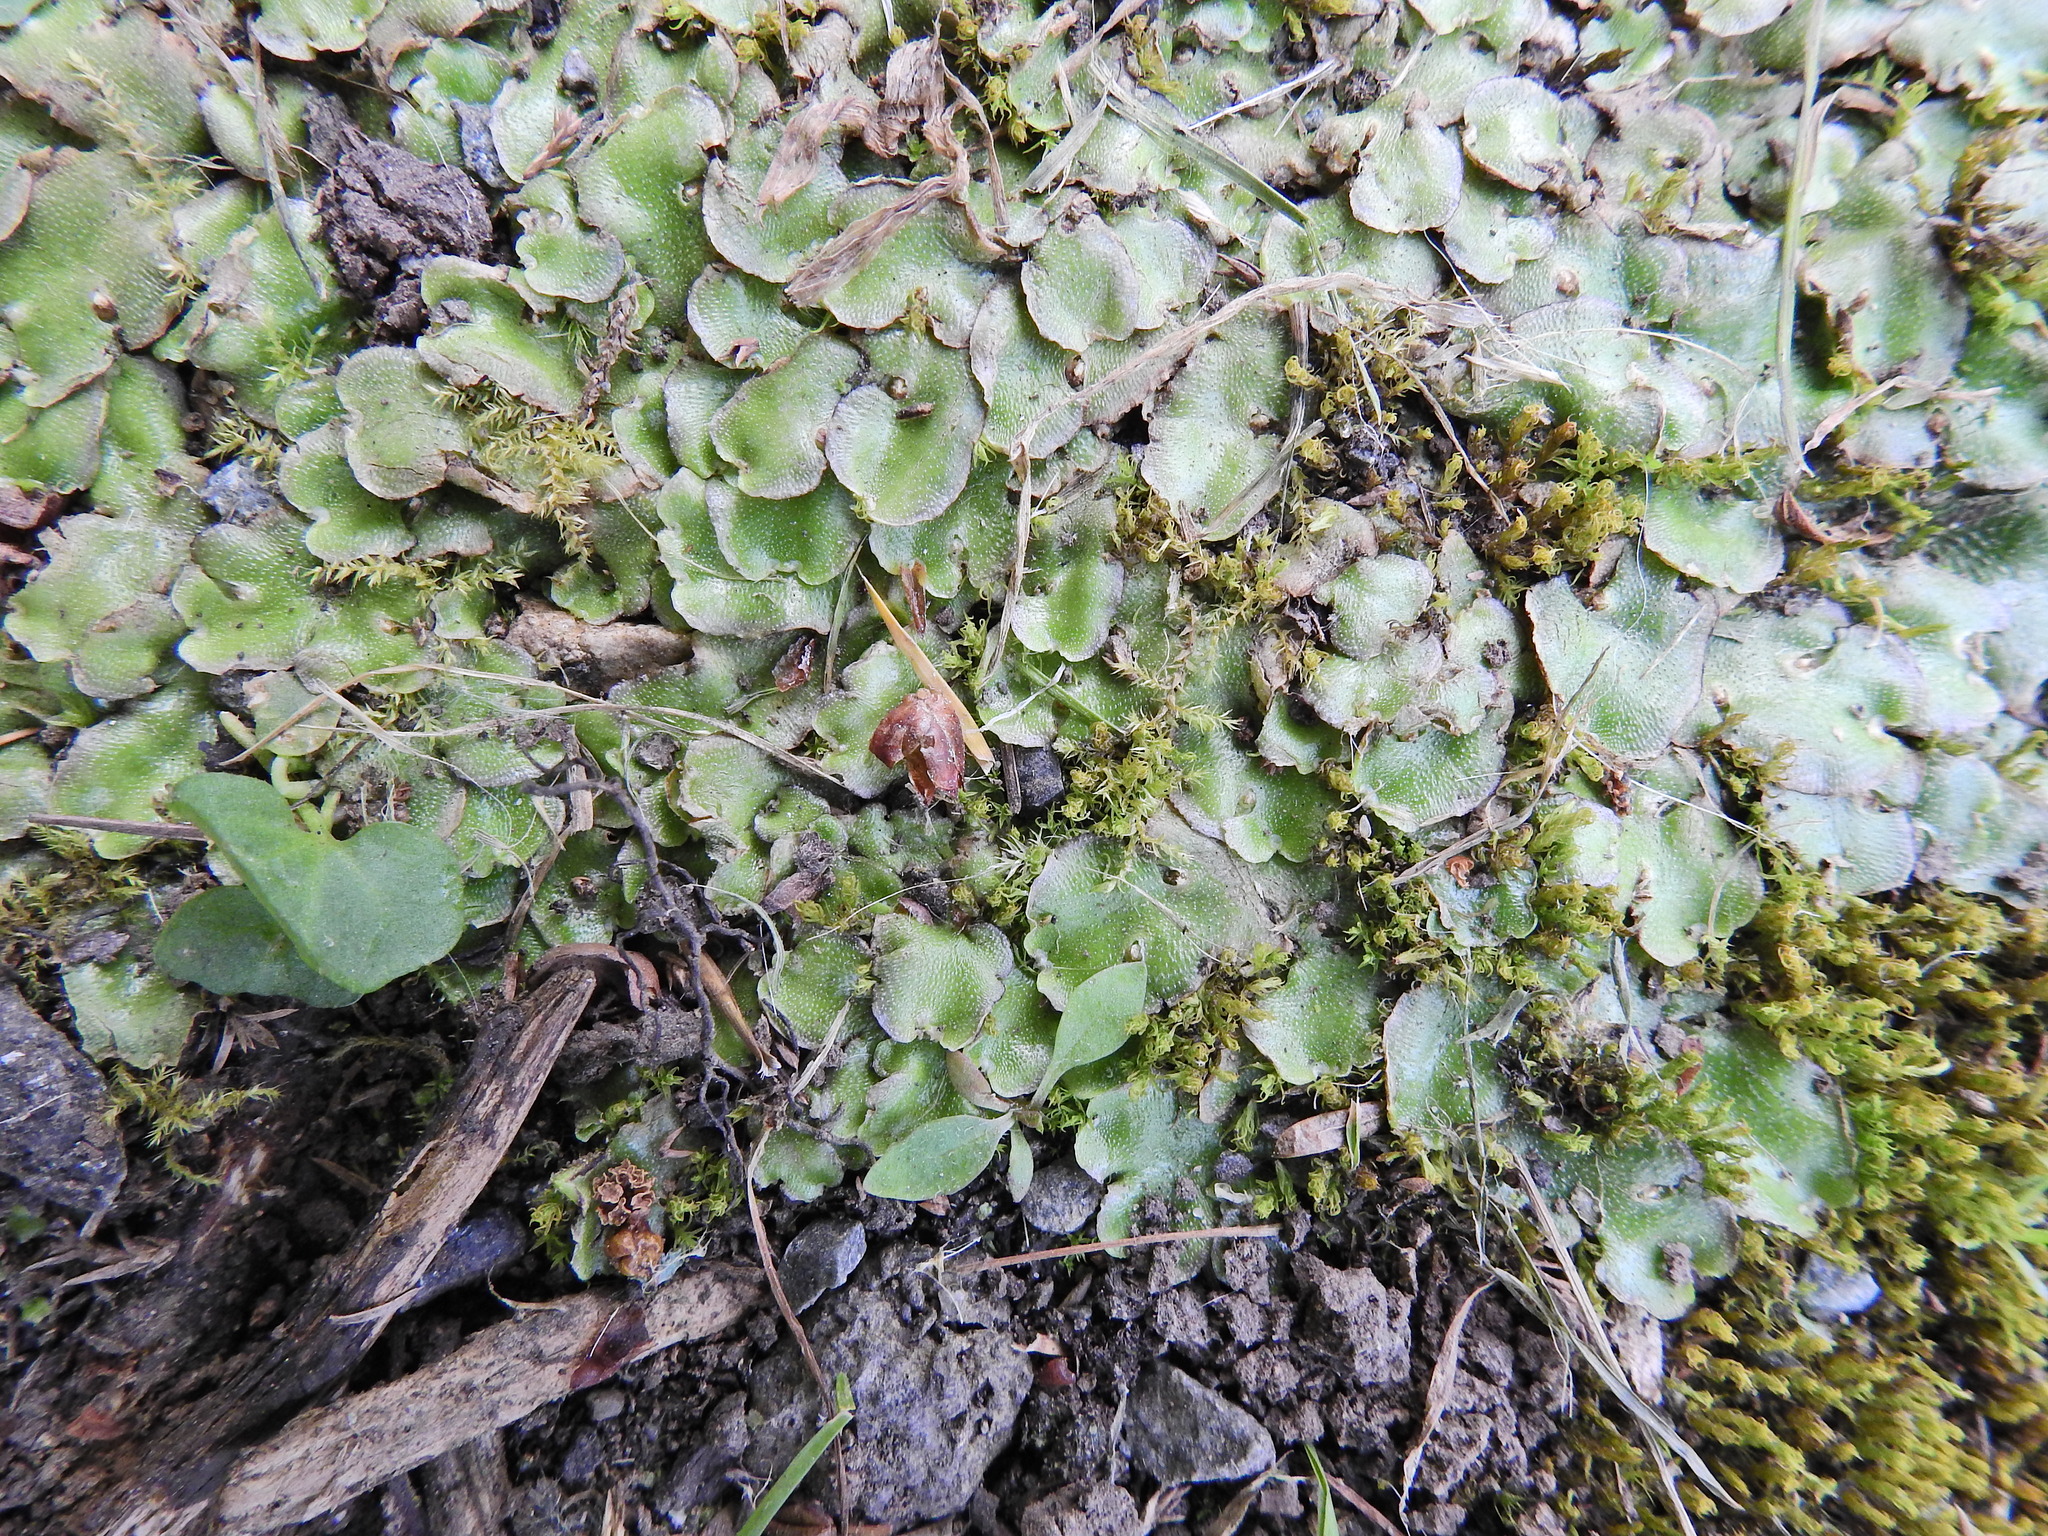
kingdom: Plantae
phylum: Marchantiophyta
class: Marchantiopsida
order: Lunulariales
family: Lunulariaceae
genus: Lunularia
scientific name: Lunularia cruciata
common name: Crescent-cup liverwort
